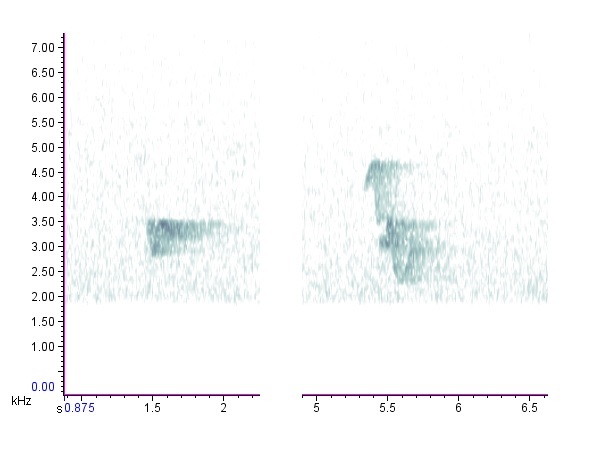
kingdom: Animalia
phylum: Chordata
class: Aves
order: Passeriformes
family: Vireonidae
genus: Vireo
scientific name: Vireo solitarius
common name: Blue-headed vireo
